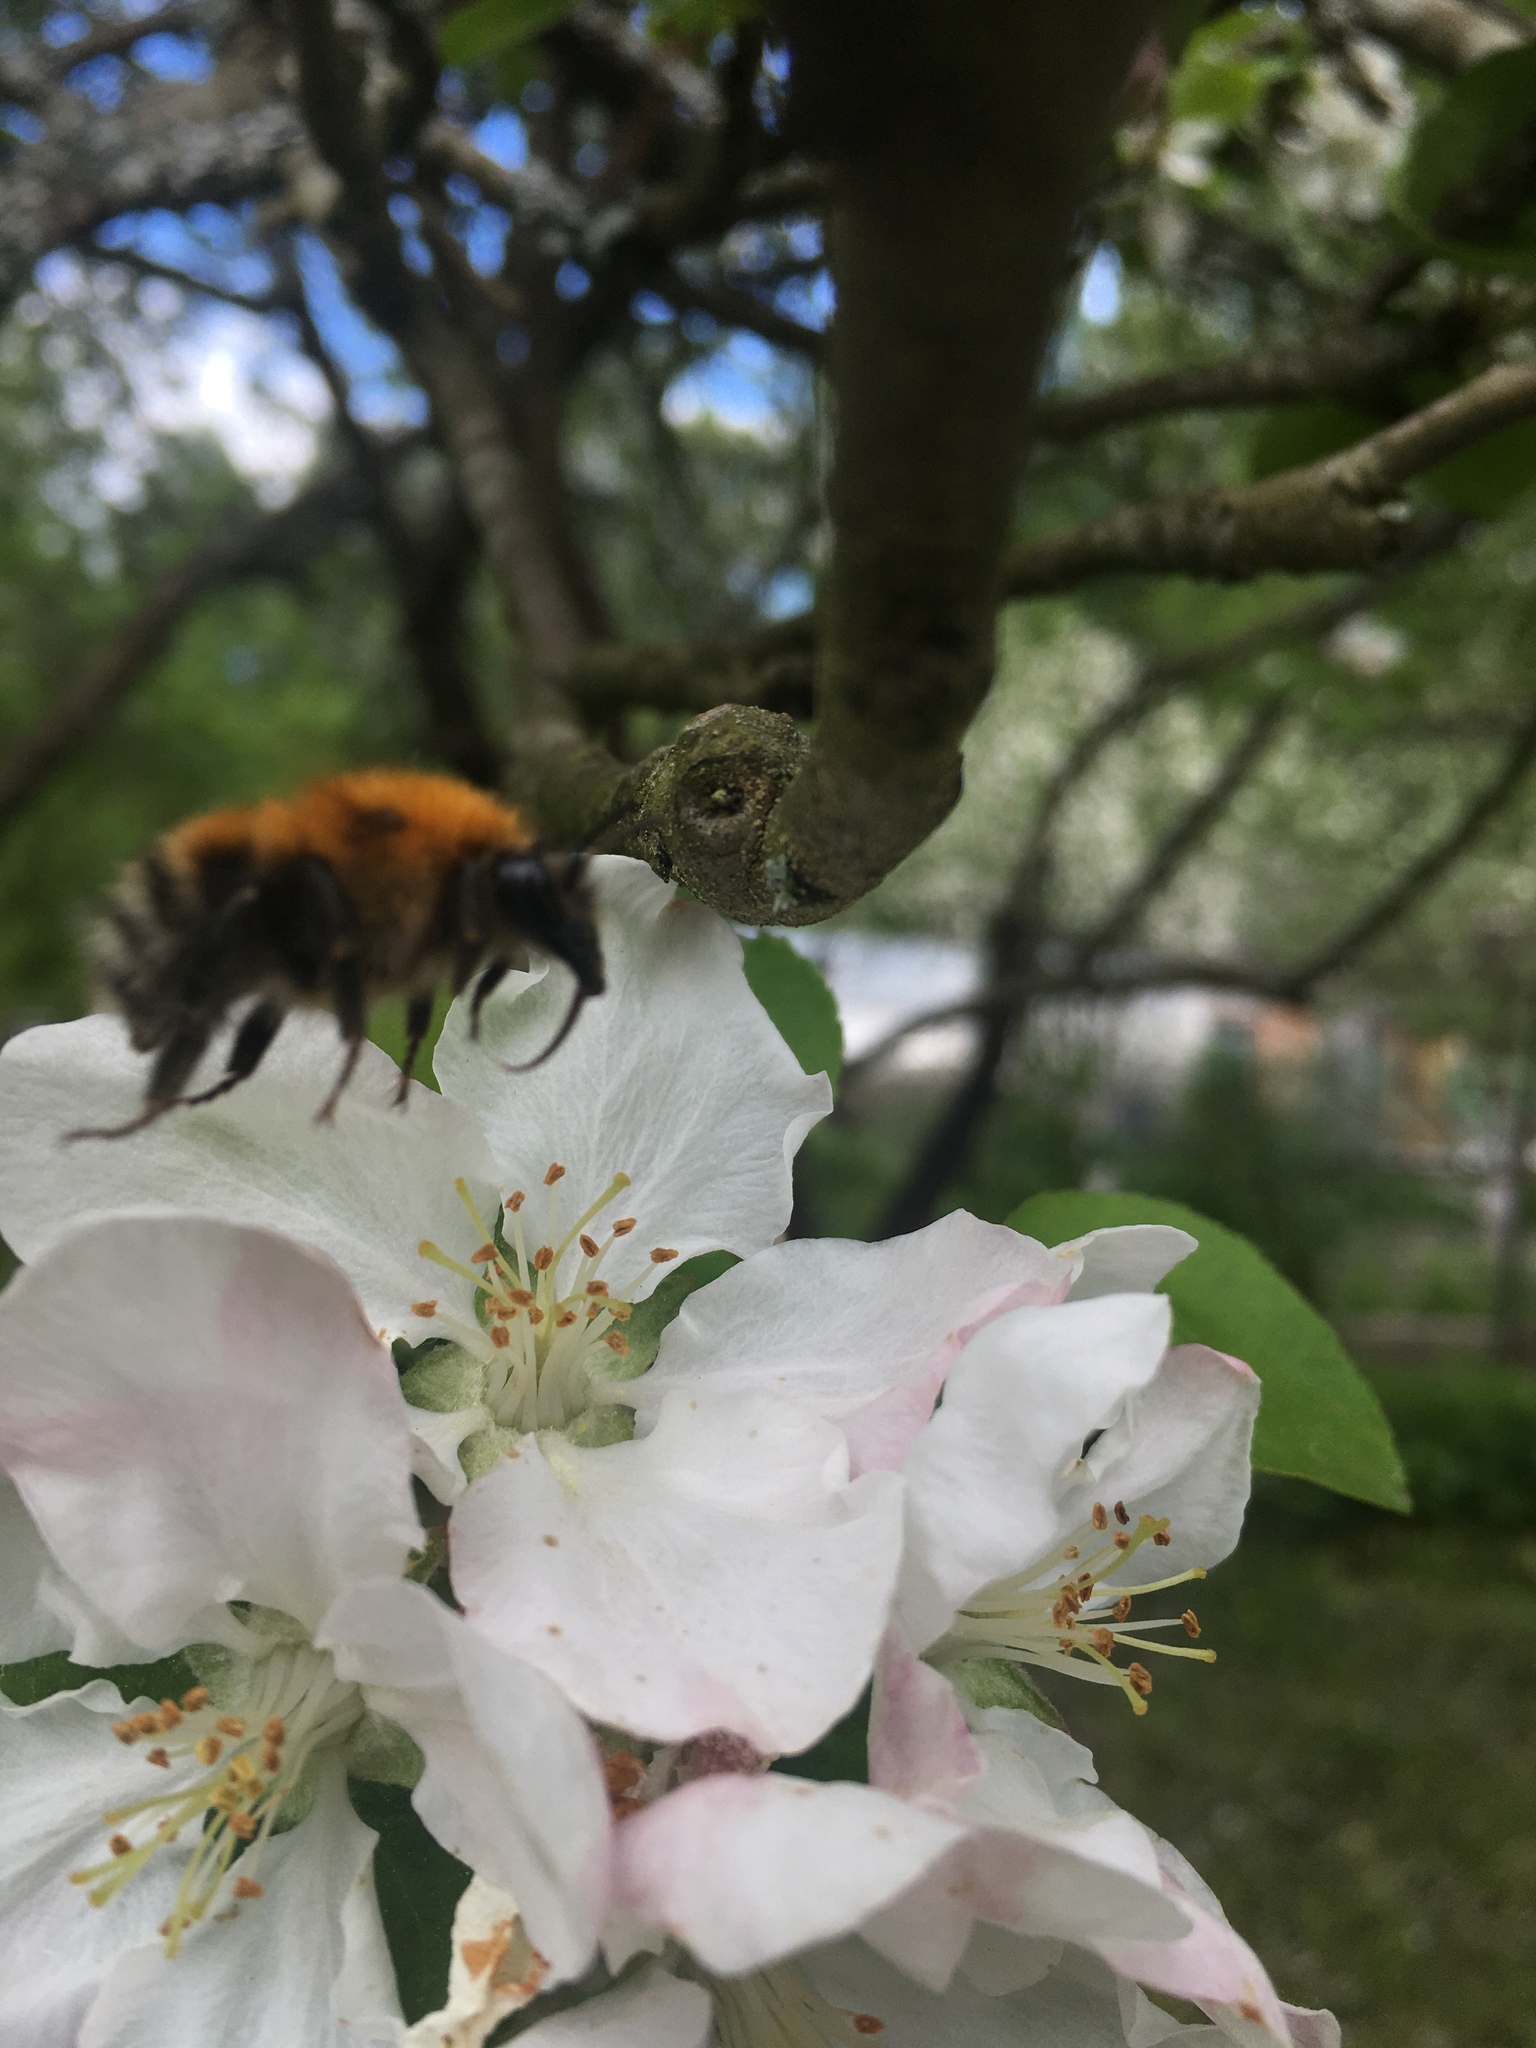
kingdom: Animalia
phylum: Arthropoda
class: Insecta
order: Hymenoptera
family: Apidae
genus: Bombus
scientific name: Bombus schrencki
